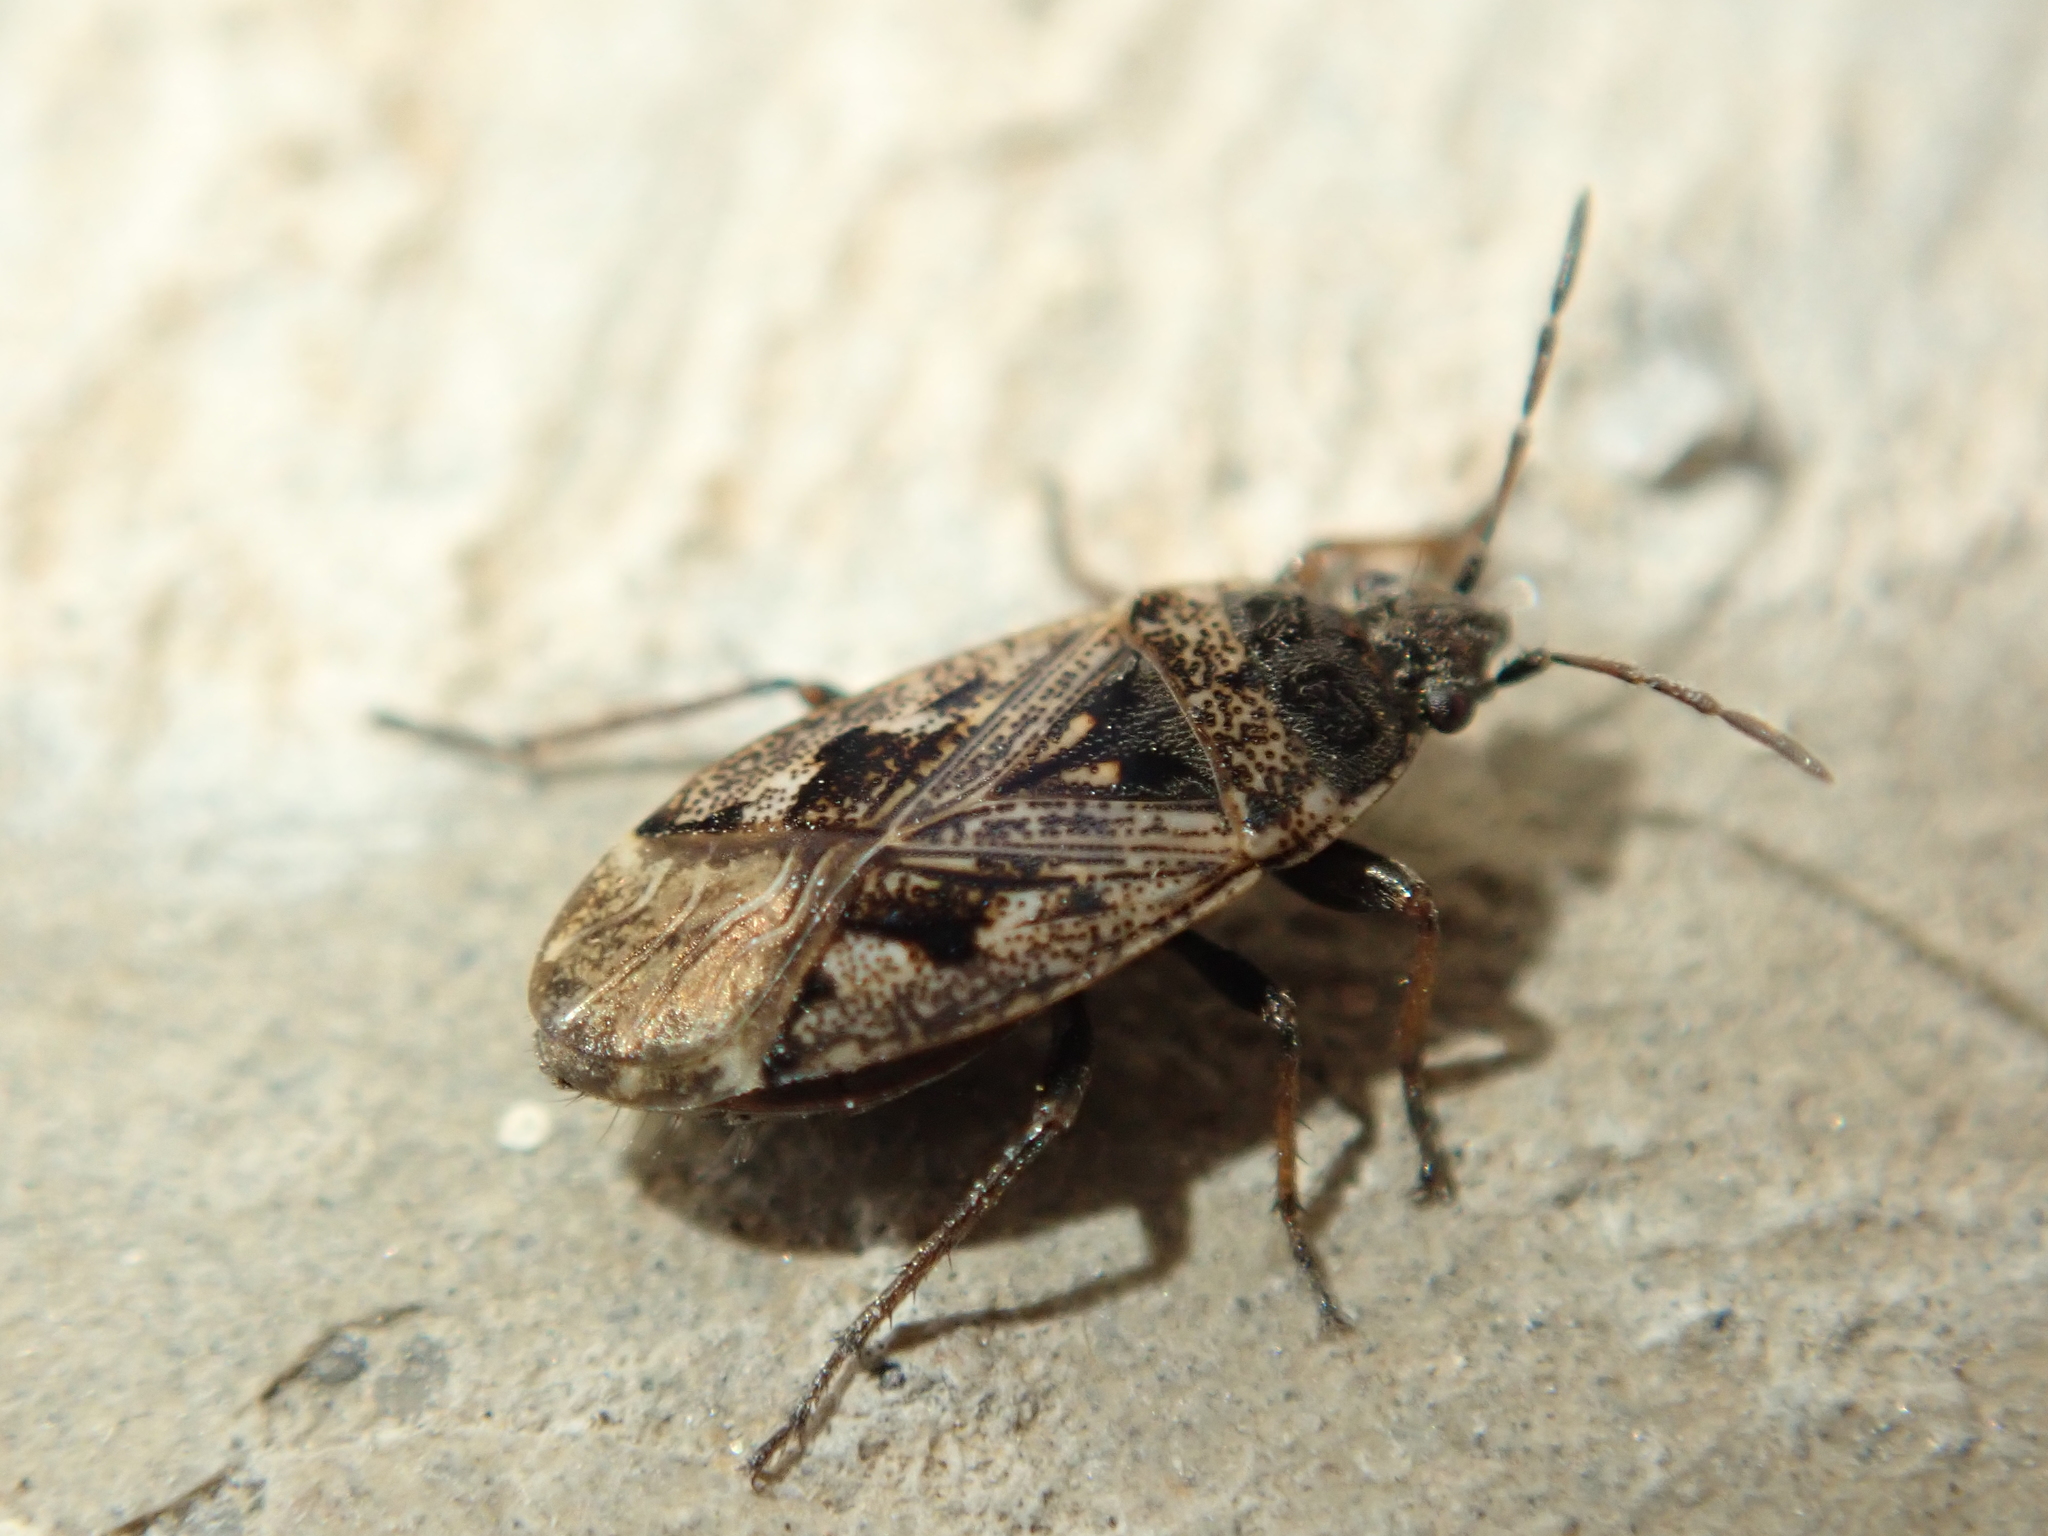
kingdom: Animalia
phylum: Arthropoda
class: Insecta
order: Hemiptera
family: Rhyparochromidae
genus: Sphragisticus
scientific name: Sphragisticus nebulosus
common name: Dirt-colored seed bug
